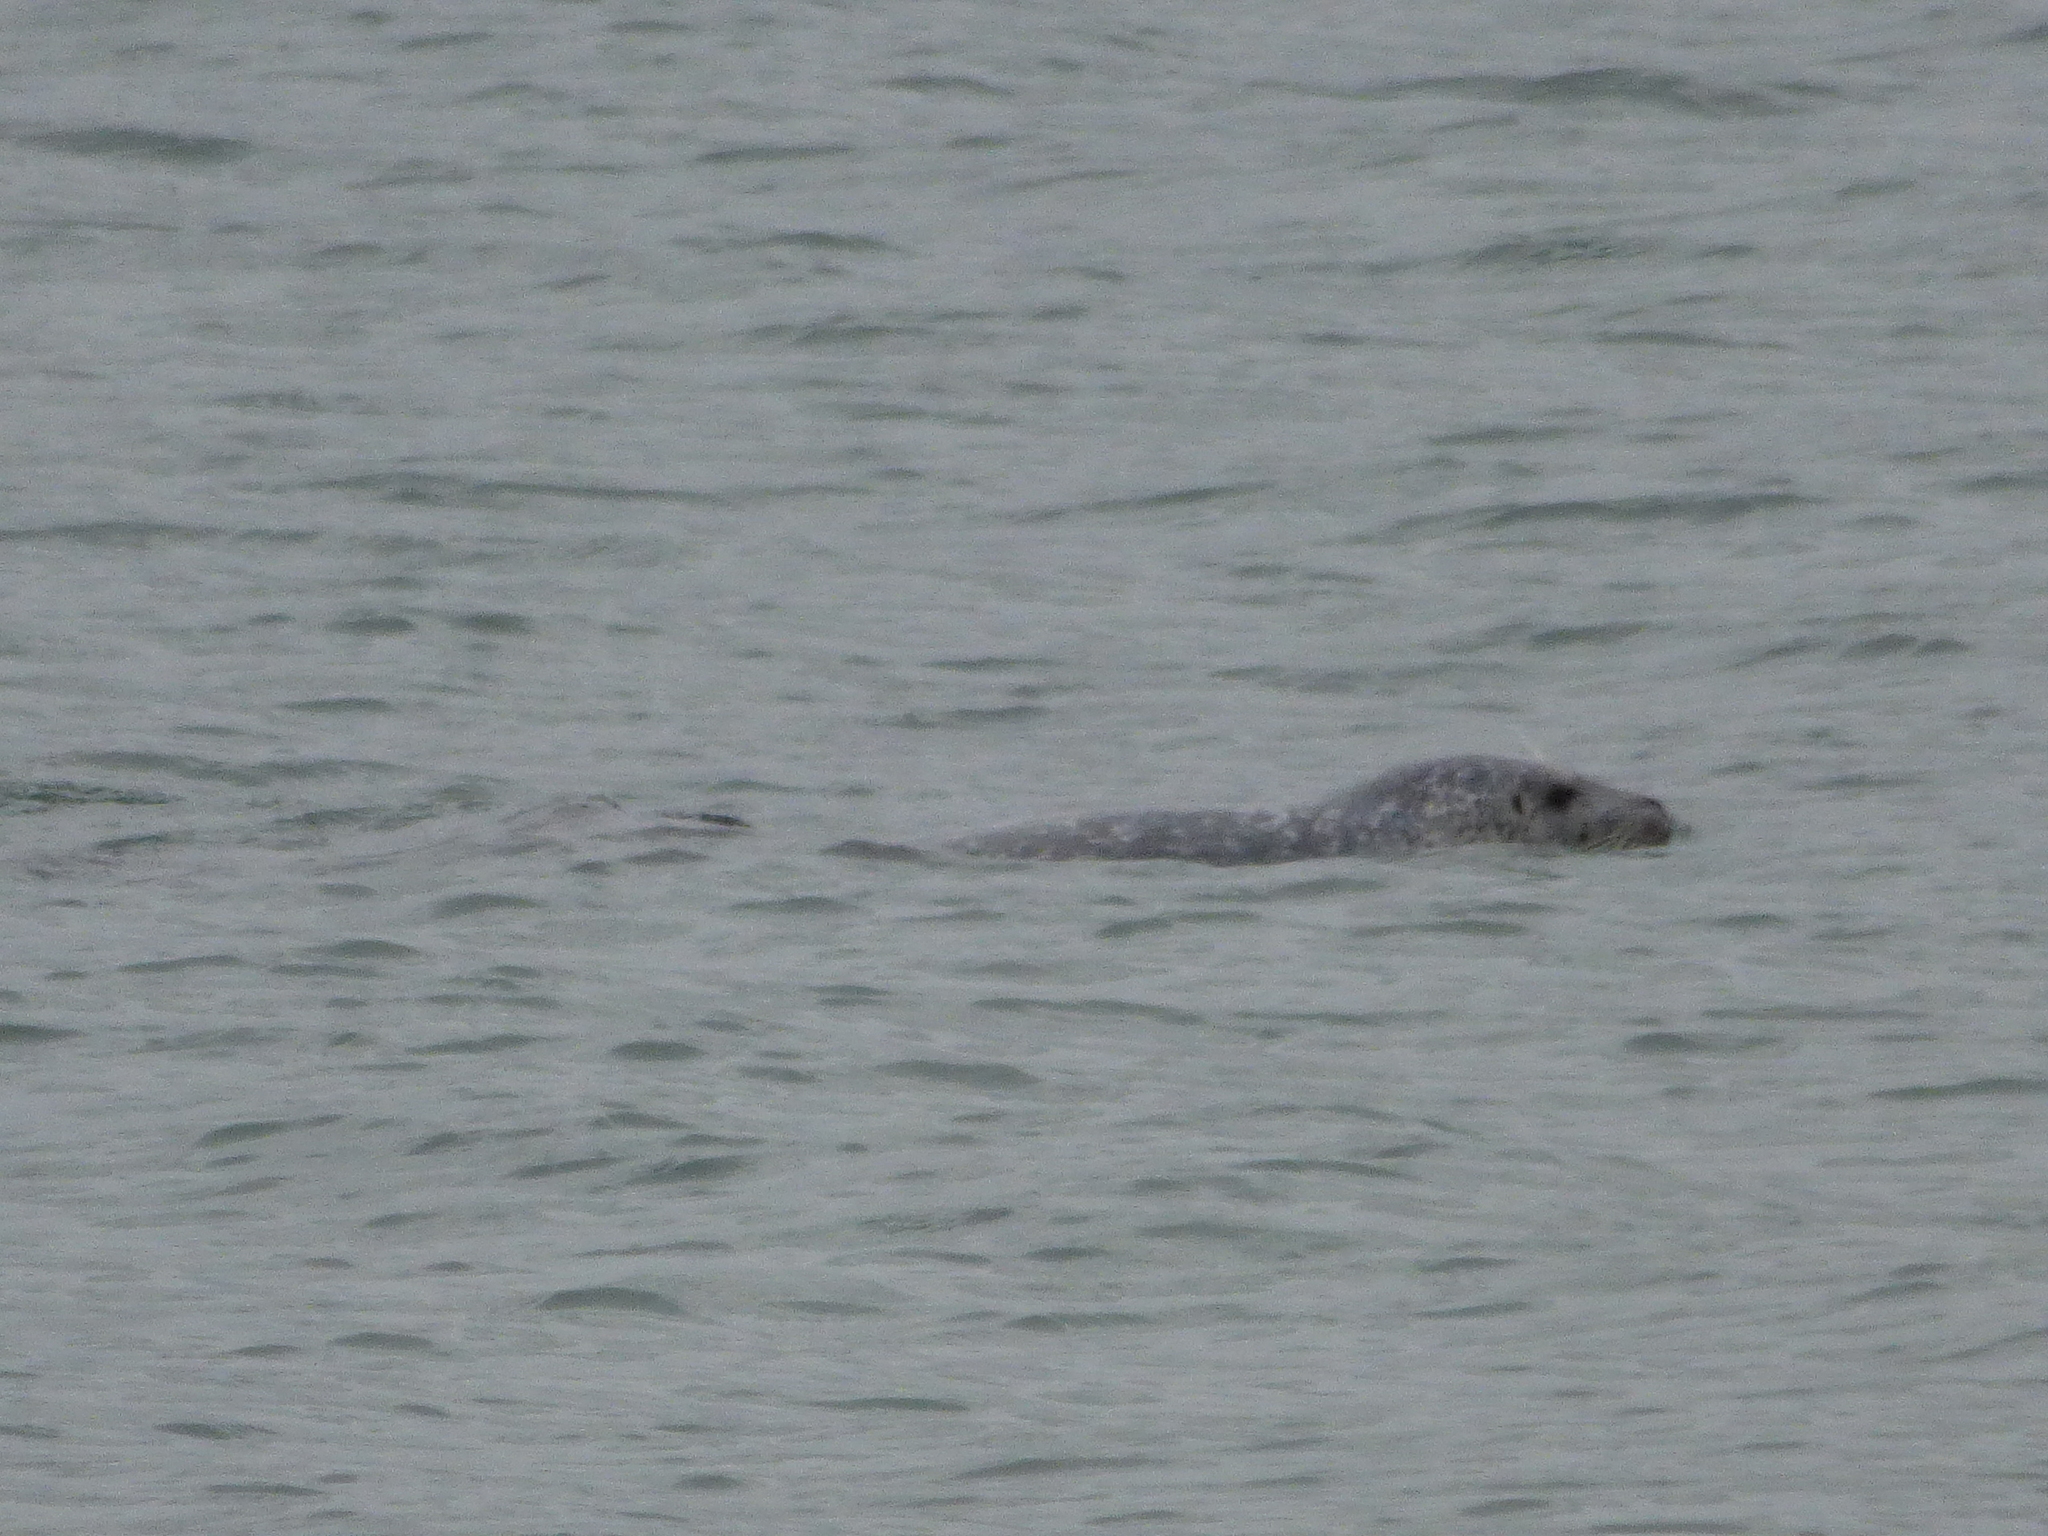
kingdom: Animalia
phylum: Chordata
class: Mammalia
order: Carnivora
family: Phocidae
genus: Phoca
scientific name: Phoca vitulina
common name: Harbor seal
